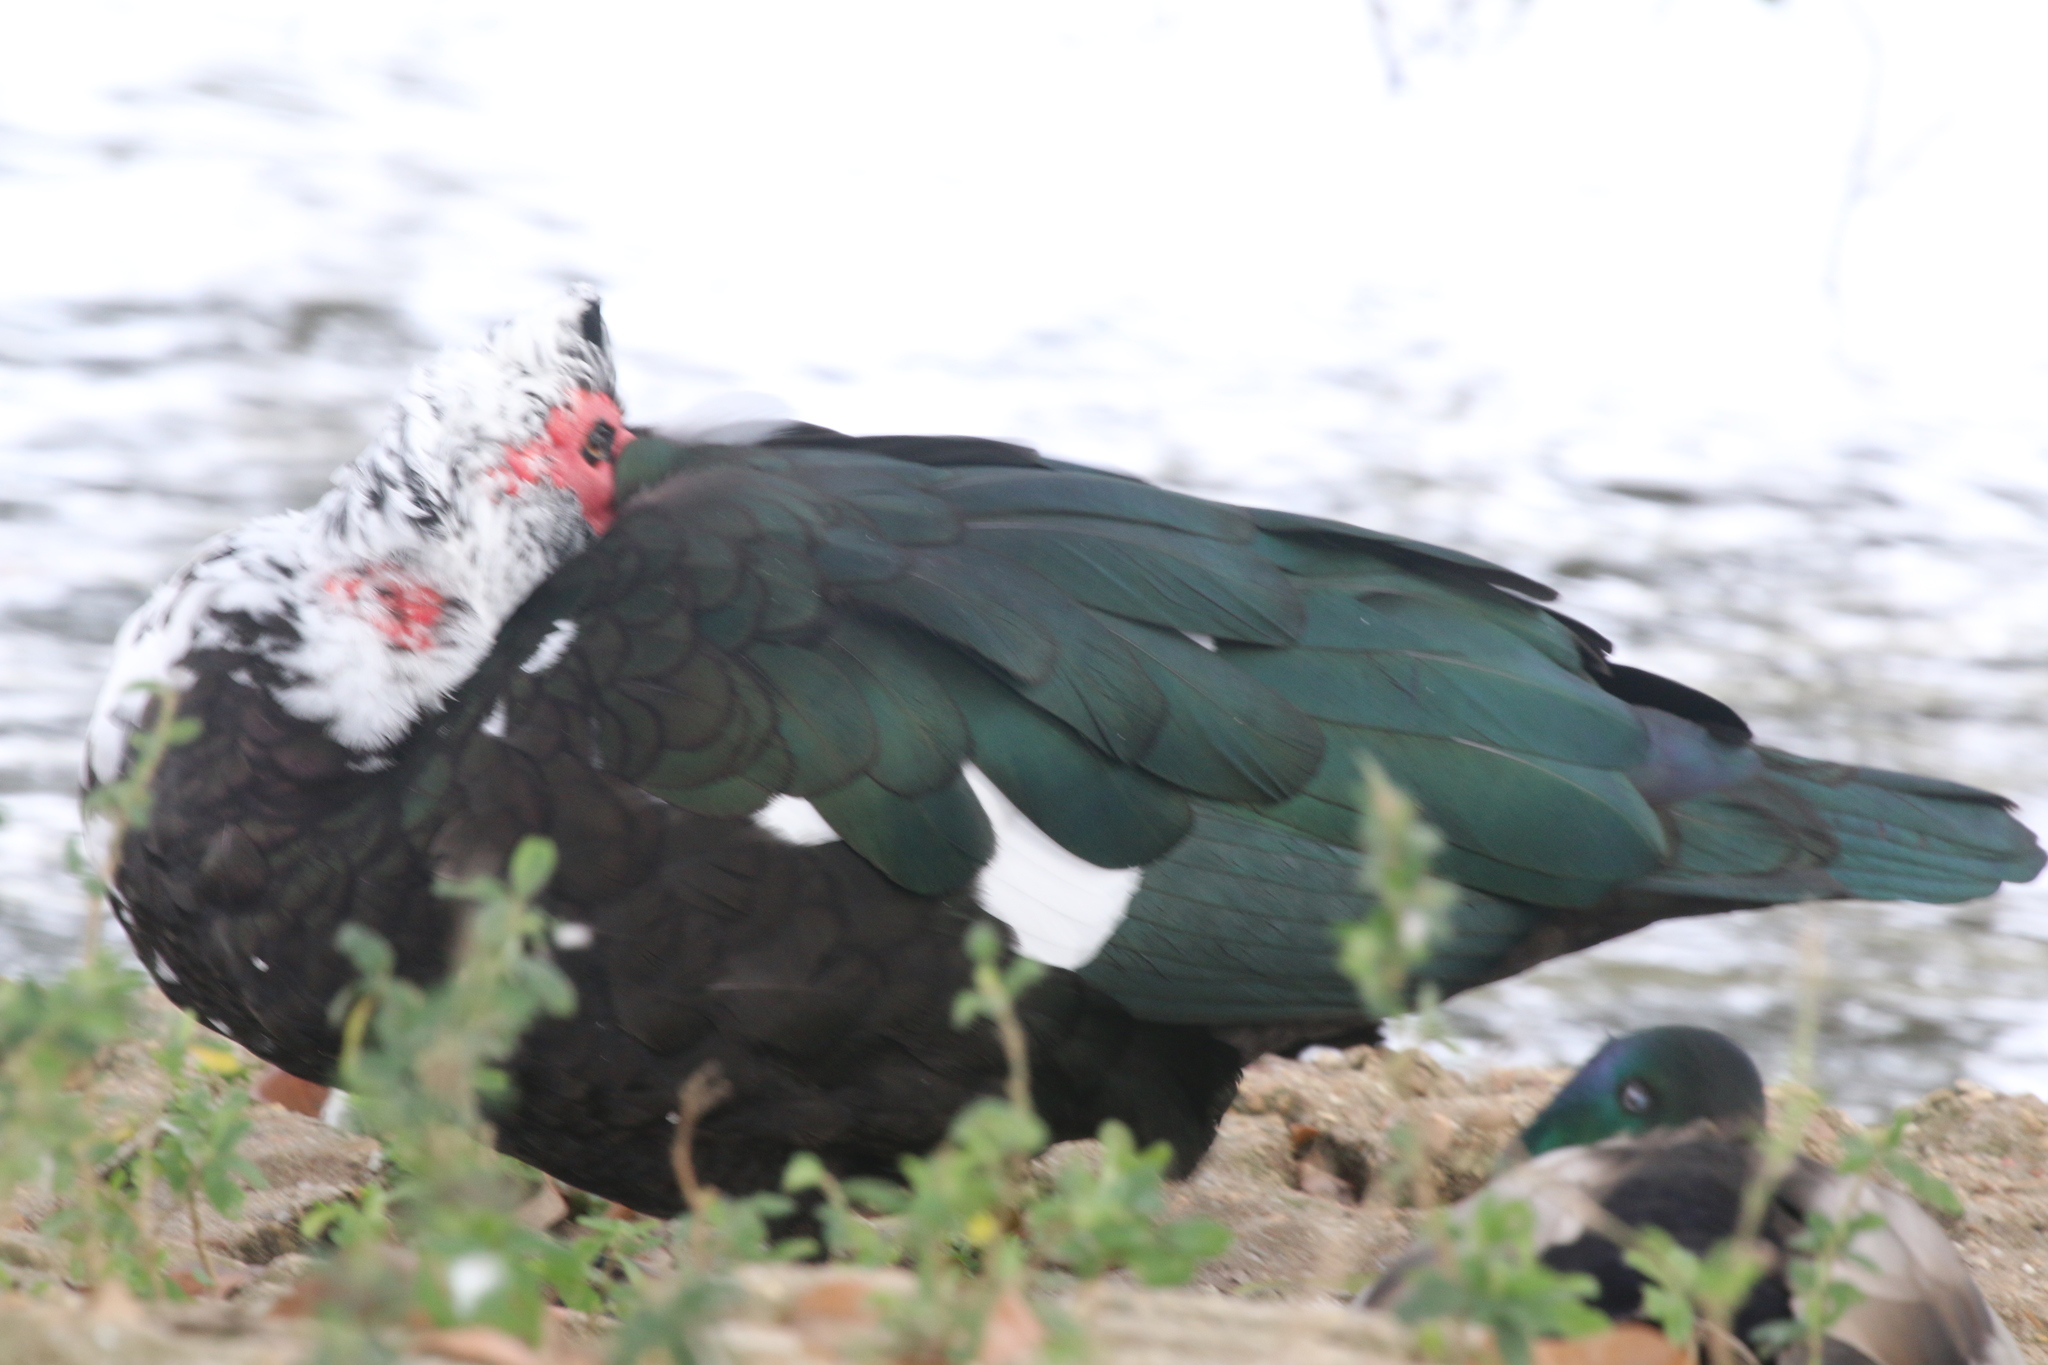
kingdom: Animalia
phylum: Chordata
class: Aves
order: Anseriformes
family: Anatidae
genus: Cairina
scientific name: Cairina moschata
